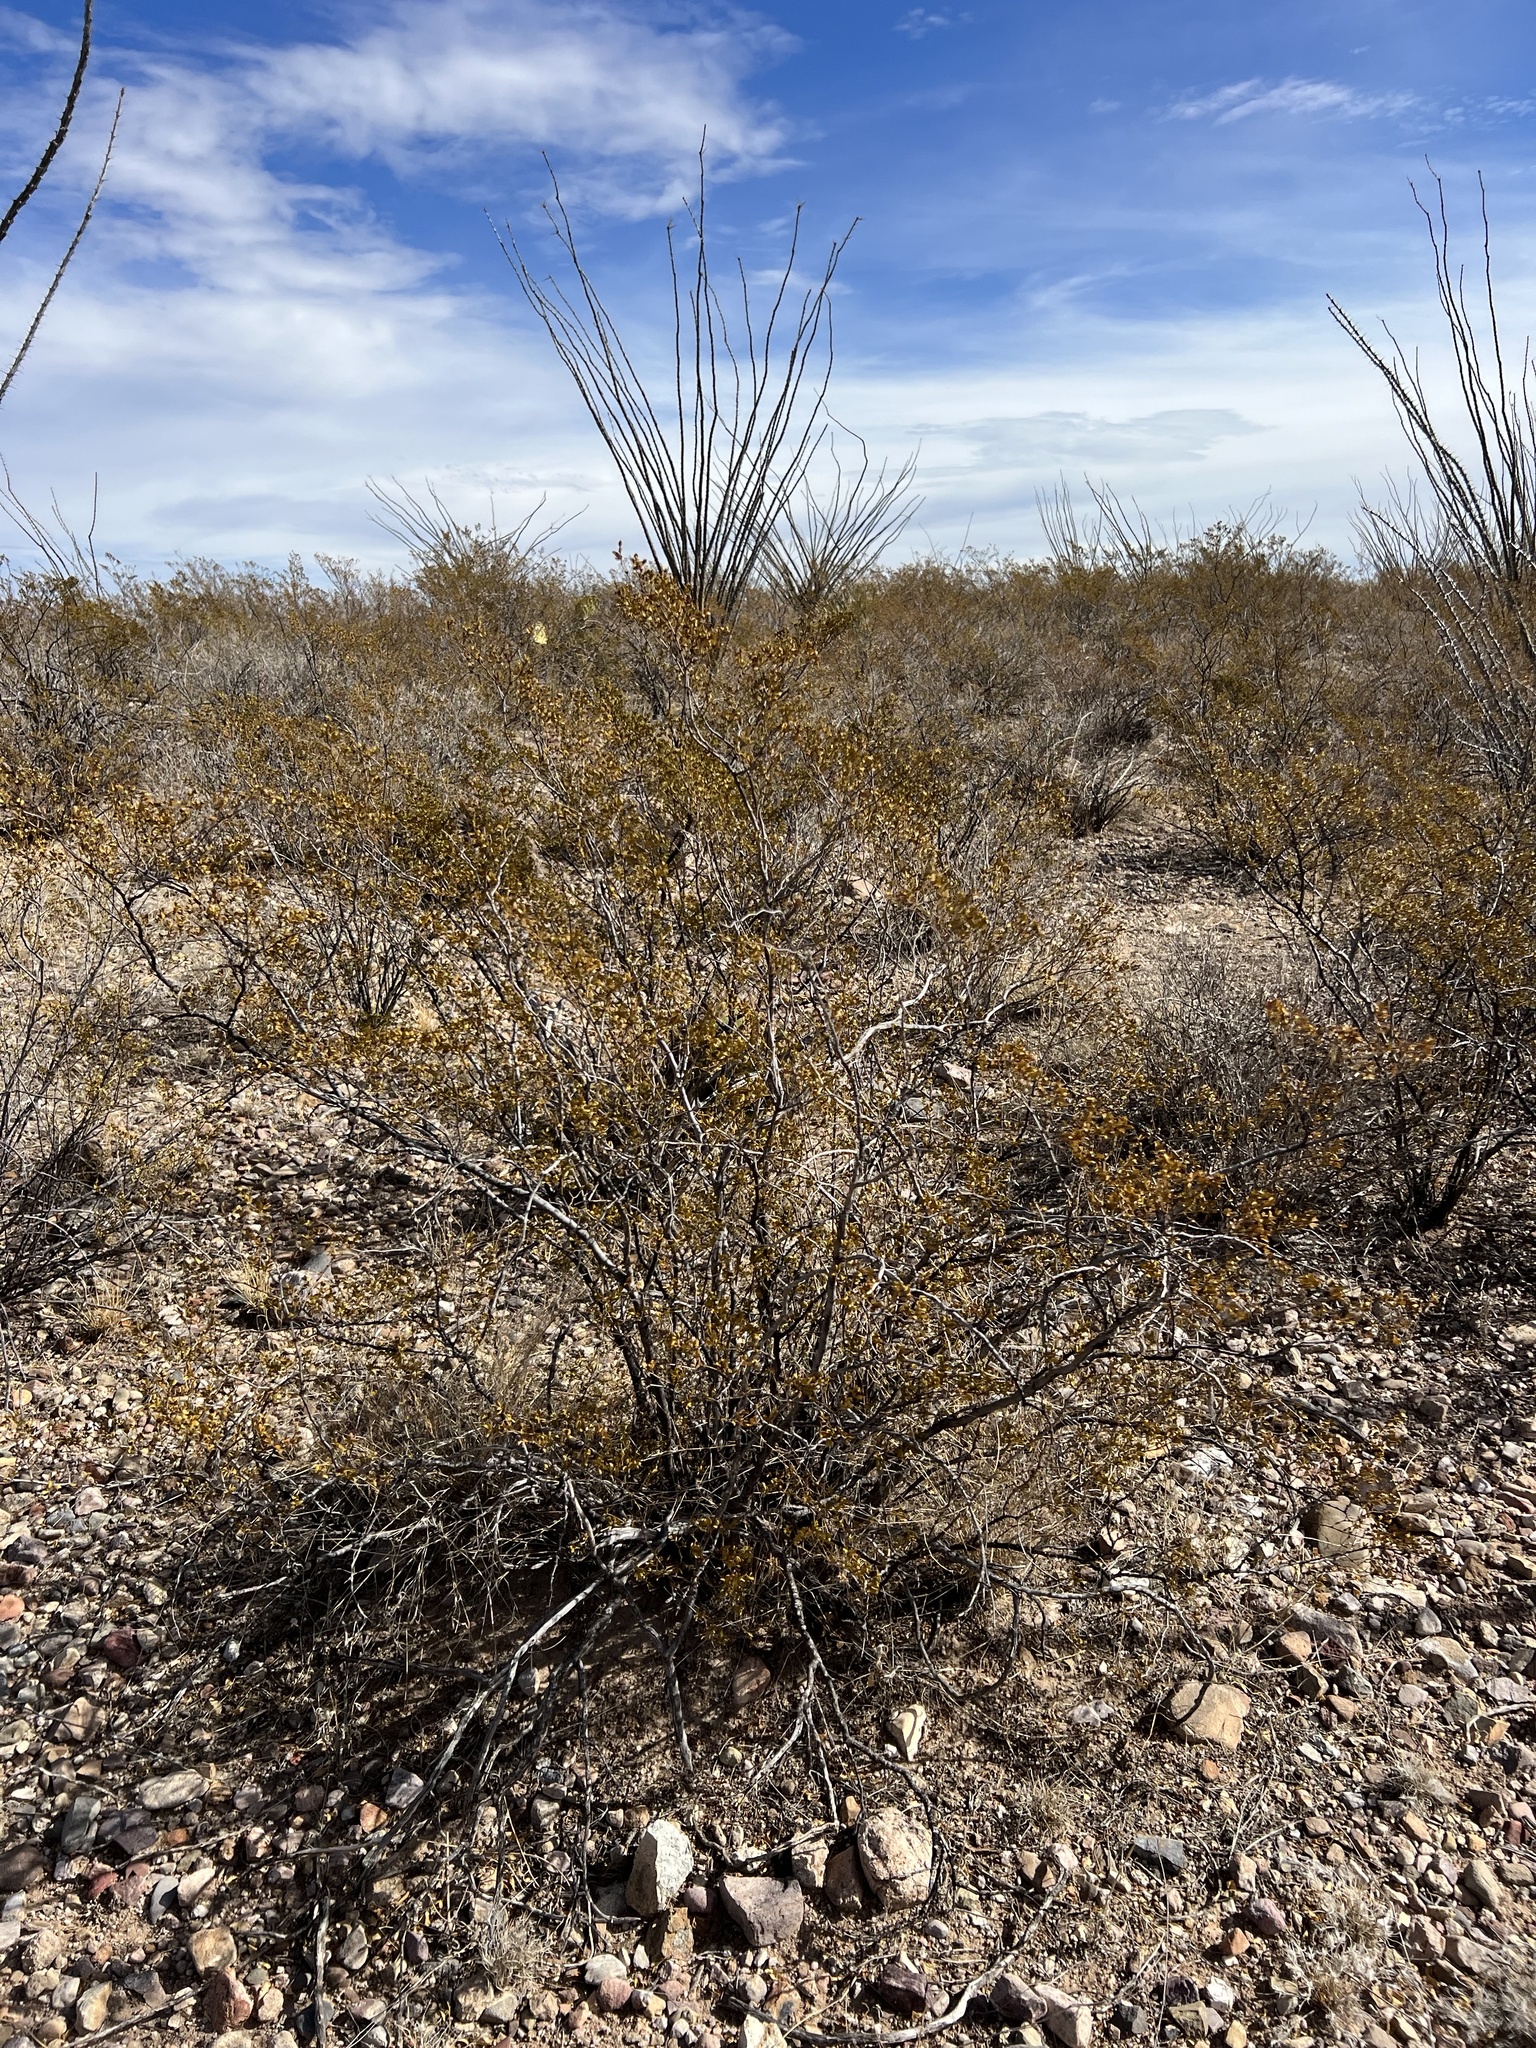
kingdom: Plantae
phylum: Tracheophyta
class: Magnoliopsida
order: Zygophyllales
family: Zygophyllaceae
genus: Larrea
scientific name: Larrea tridentata
